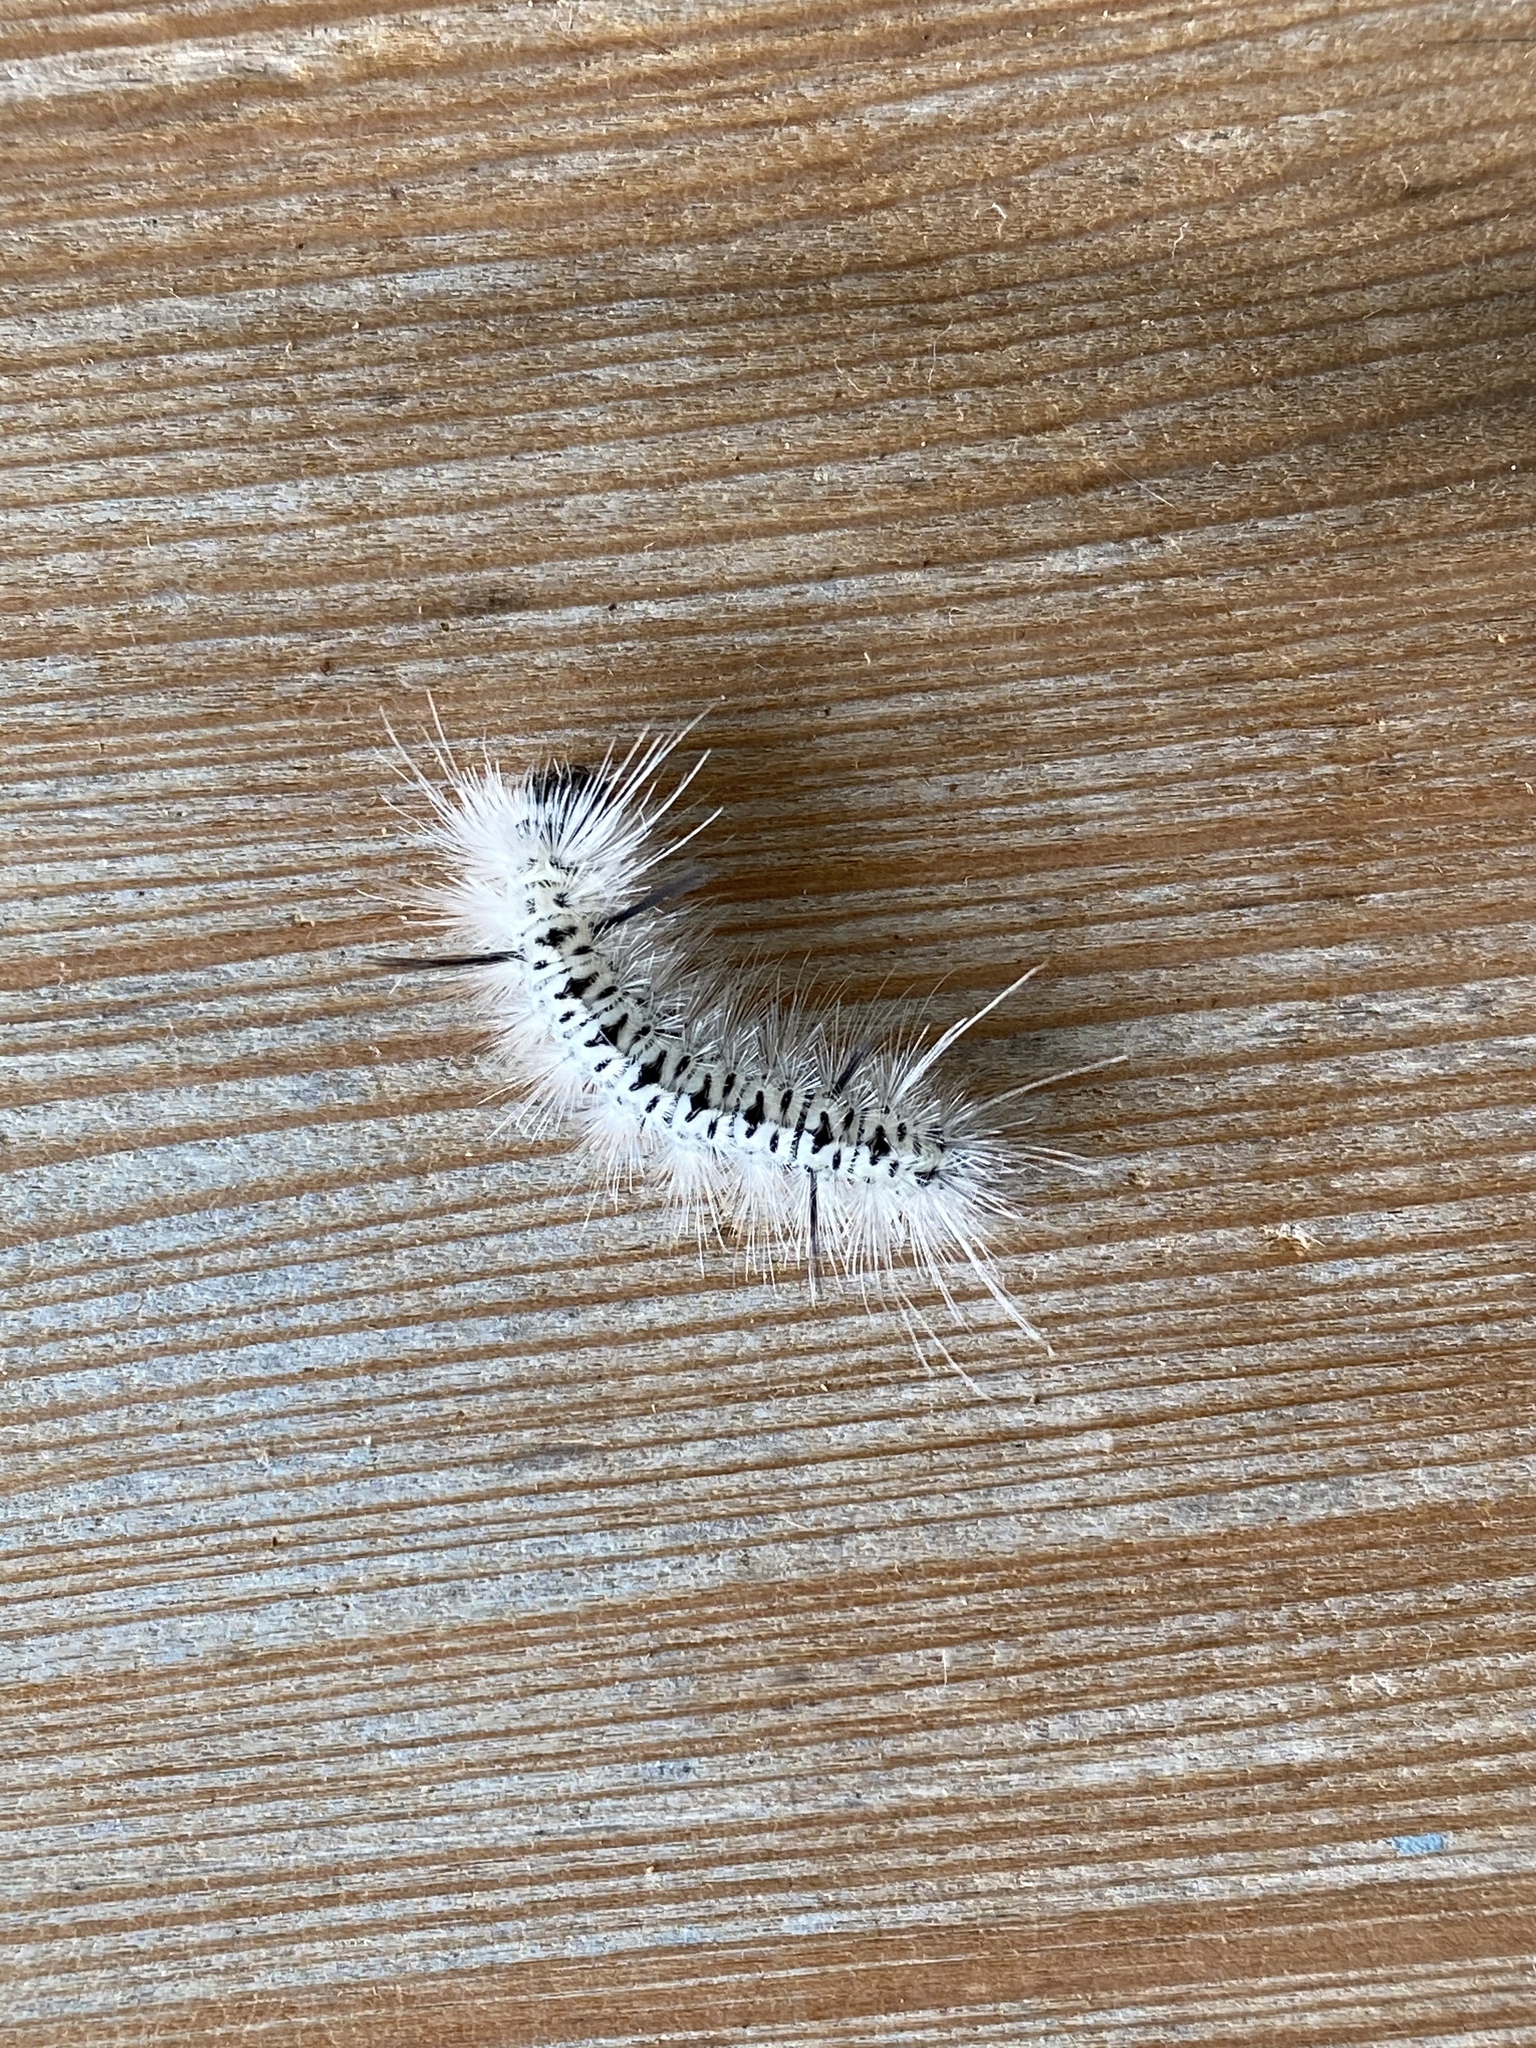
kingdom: Animalia
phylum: Arthropoda
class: Insecta
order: Lepidoptera
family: Erebidae
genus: Lophocampa
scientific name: Lophocampa caryae
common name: Hickory tussock moth
